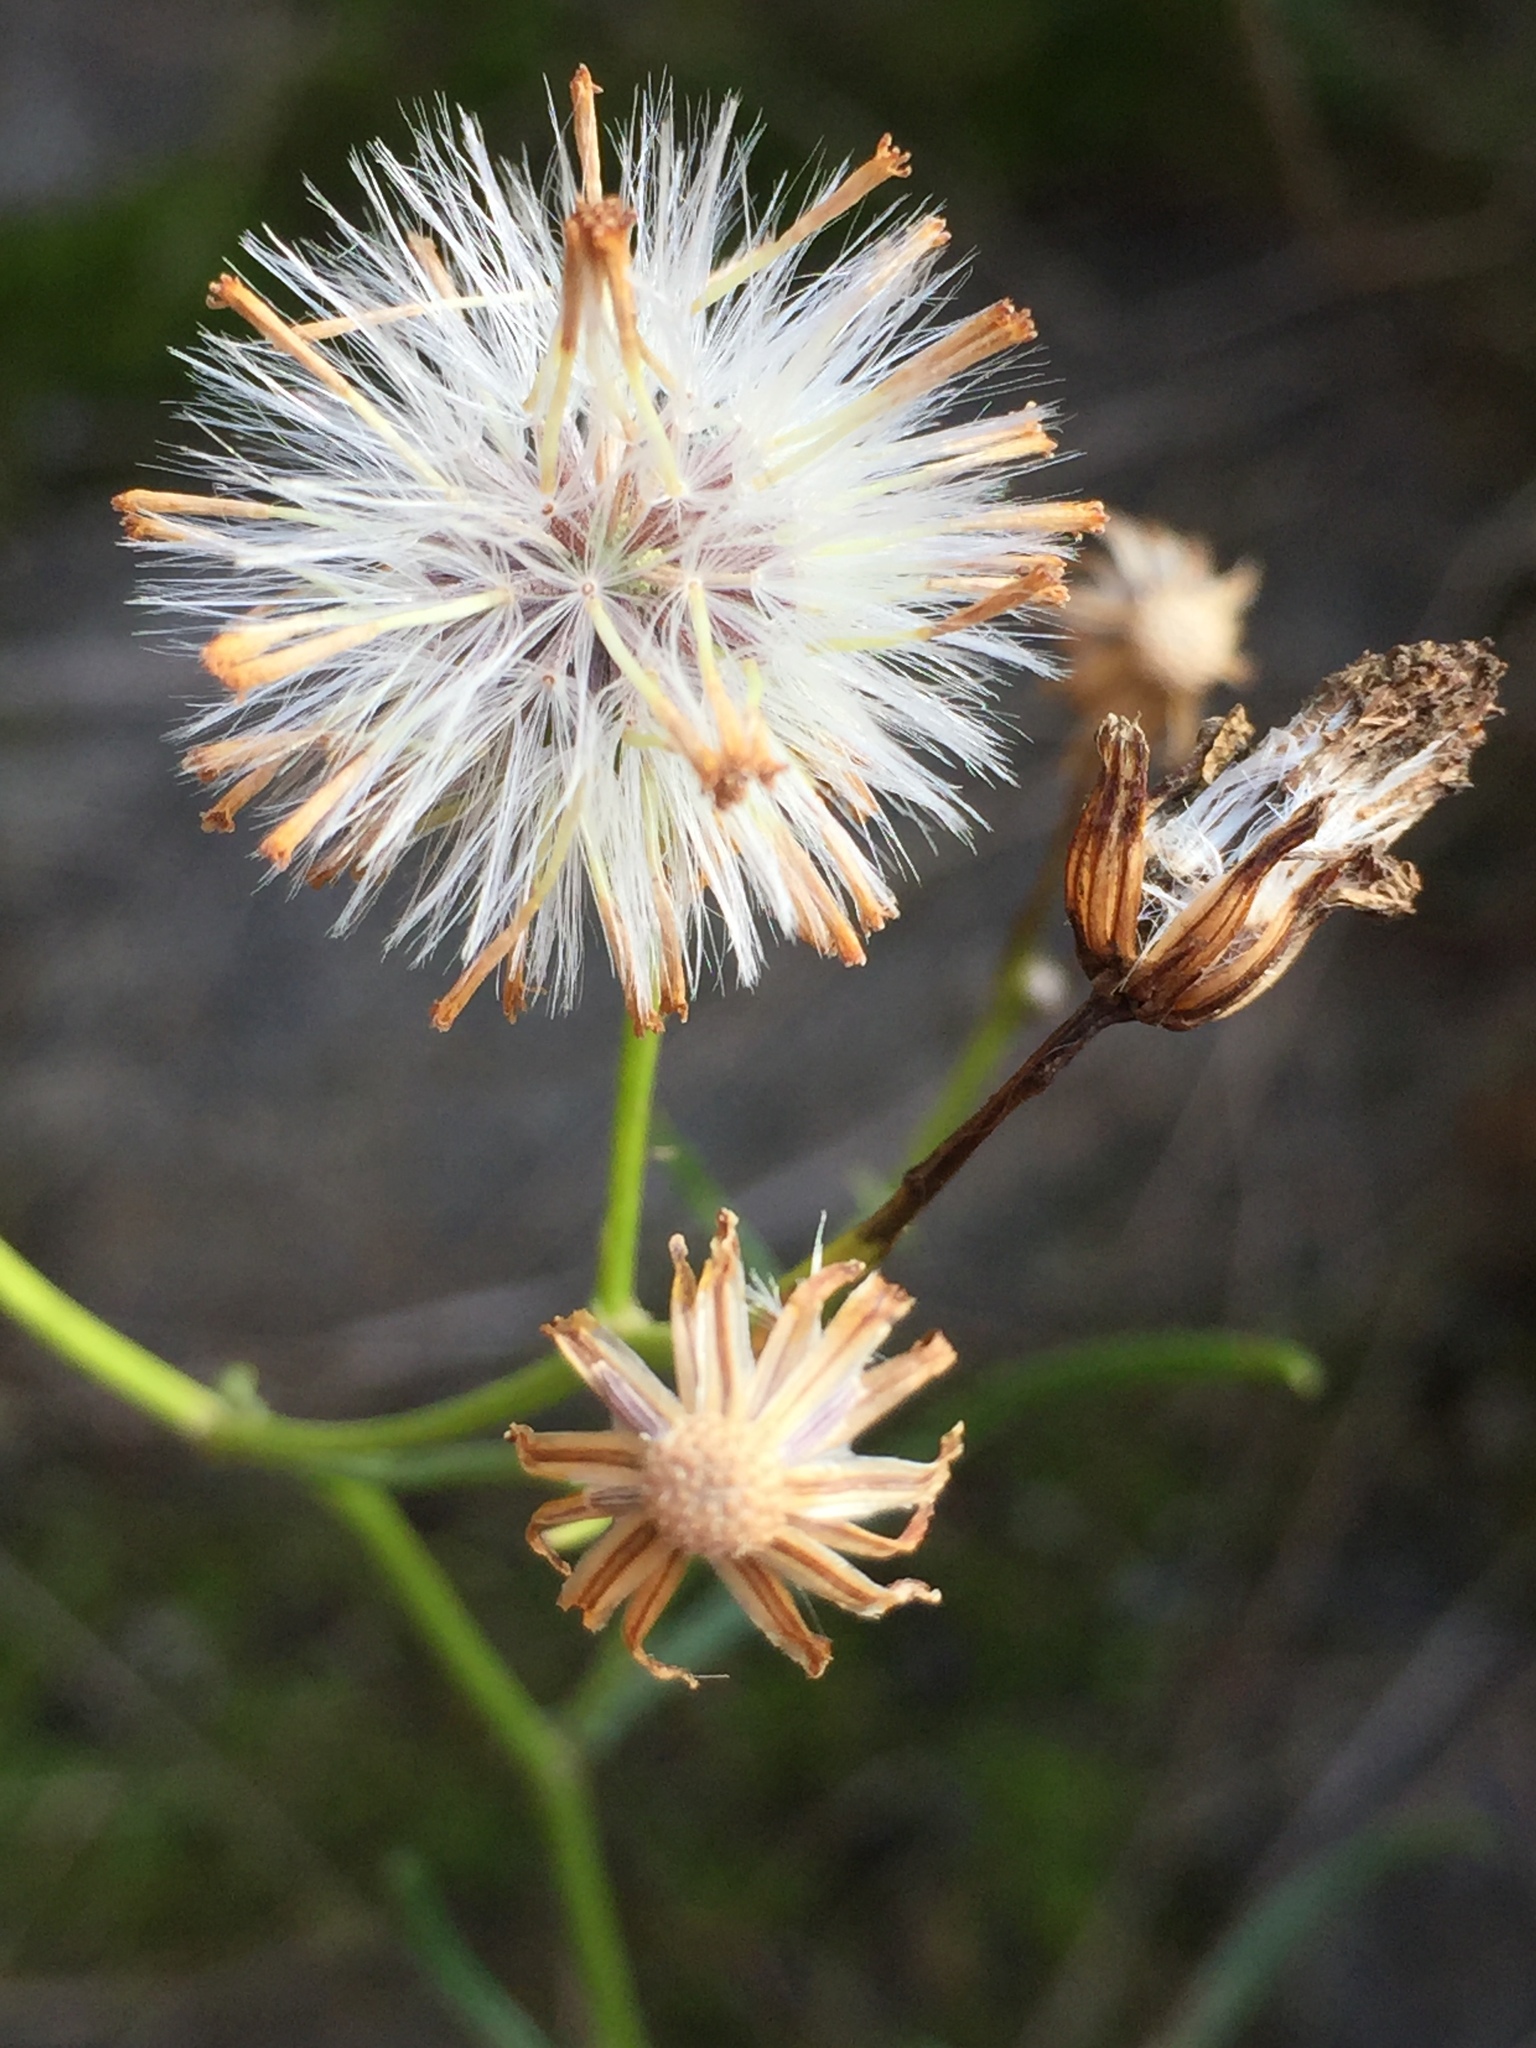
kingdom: Plantae
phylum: Tracheophyta
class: Magnoliopsida
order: Asterales
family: Asteraceae
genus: Senecio
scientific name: Senecio inaequidens
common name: Narrow-leaved ragwort
